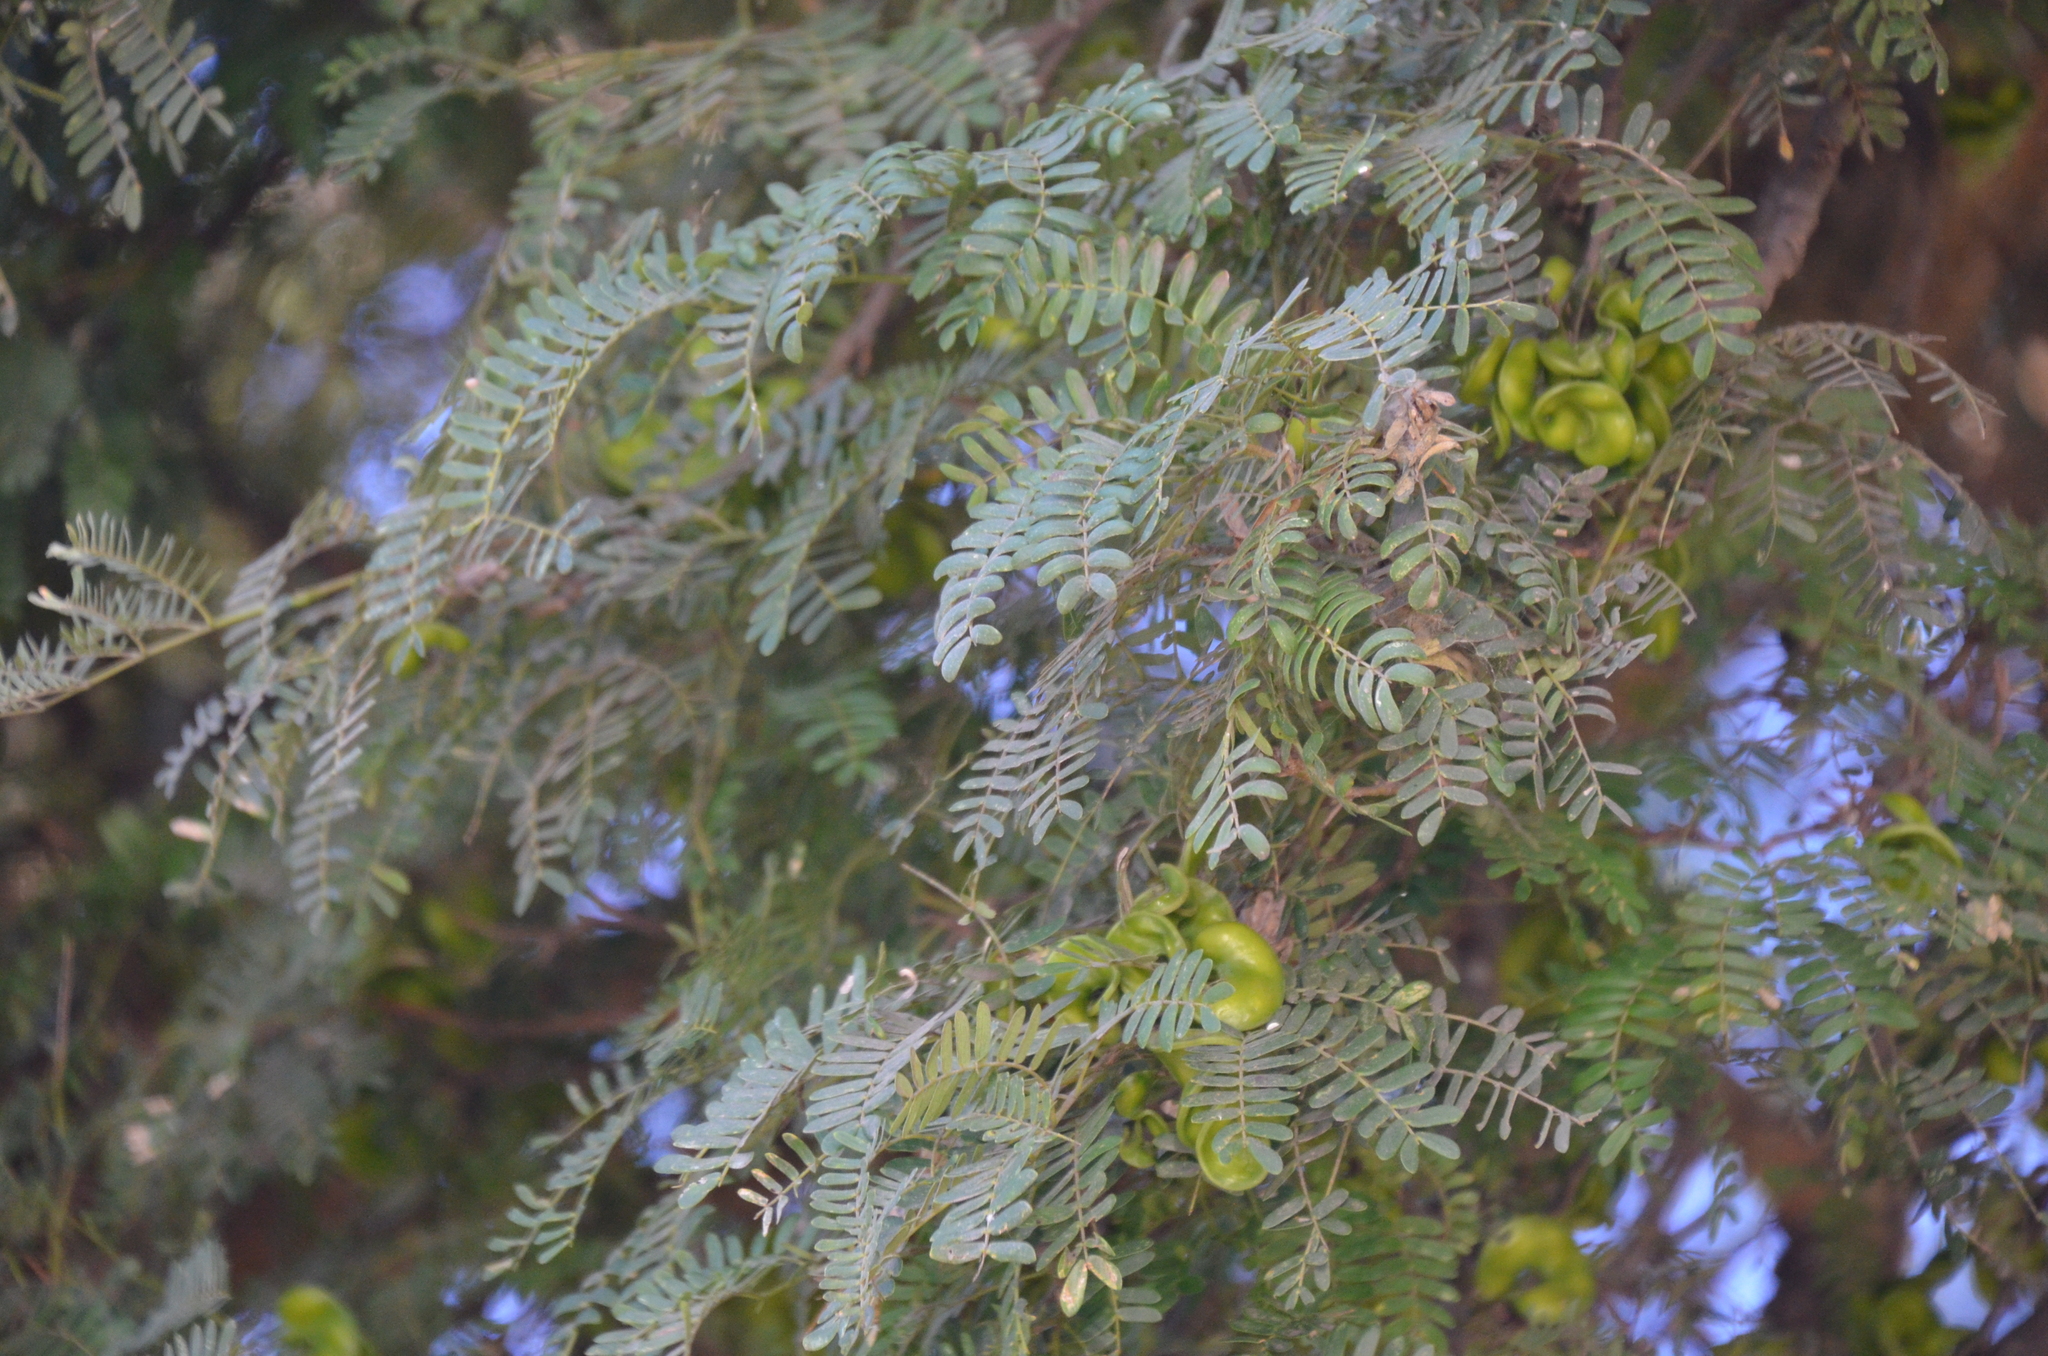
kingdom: Plantae
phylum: Tracheophyta
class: Magnoliopsida
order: Fabales
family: Fabaceae
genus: Chloroleucon
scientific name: Chloroleucon tenuiflorum
